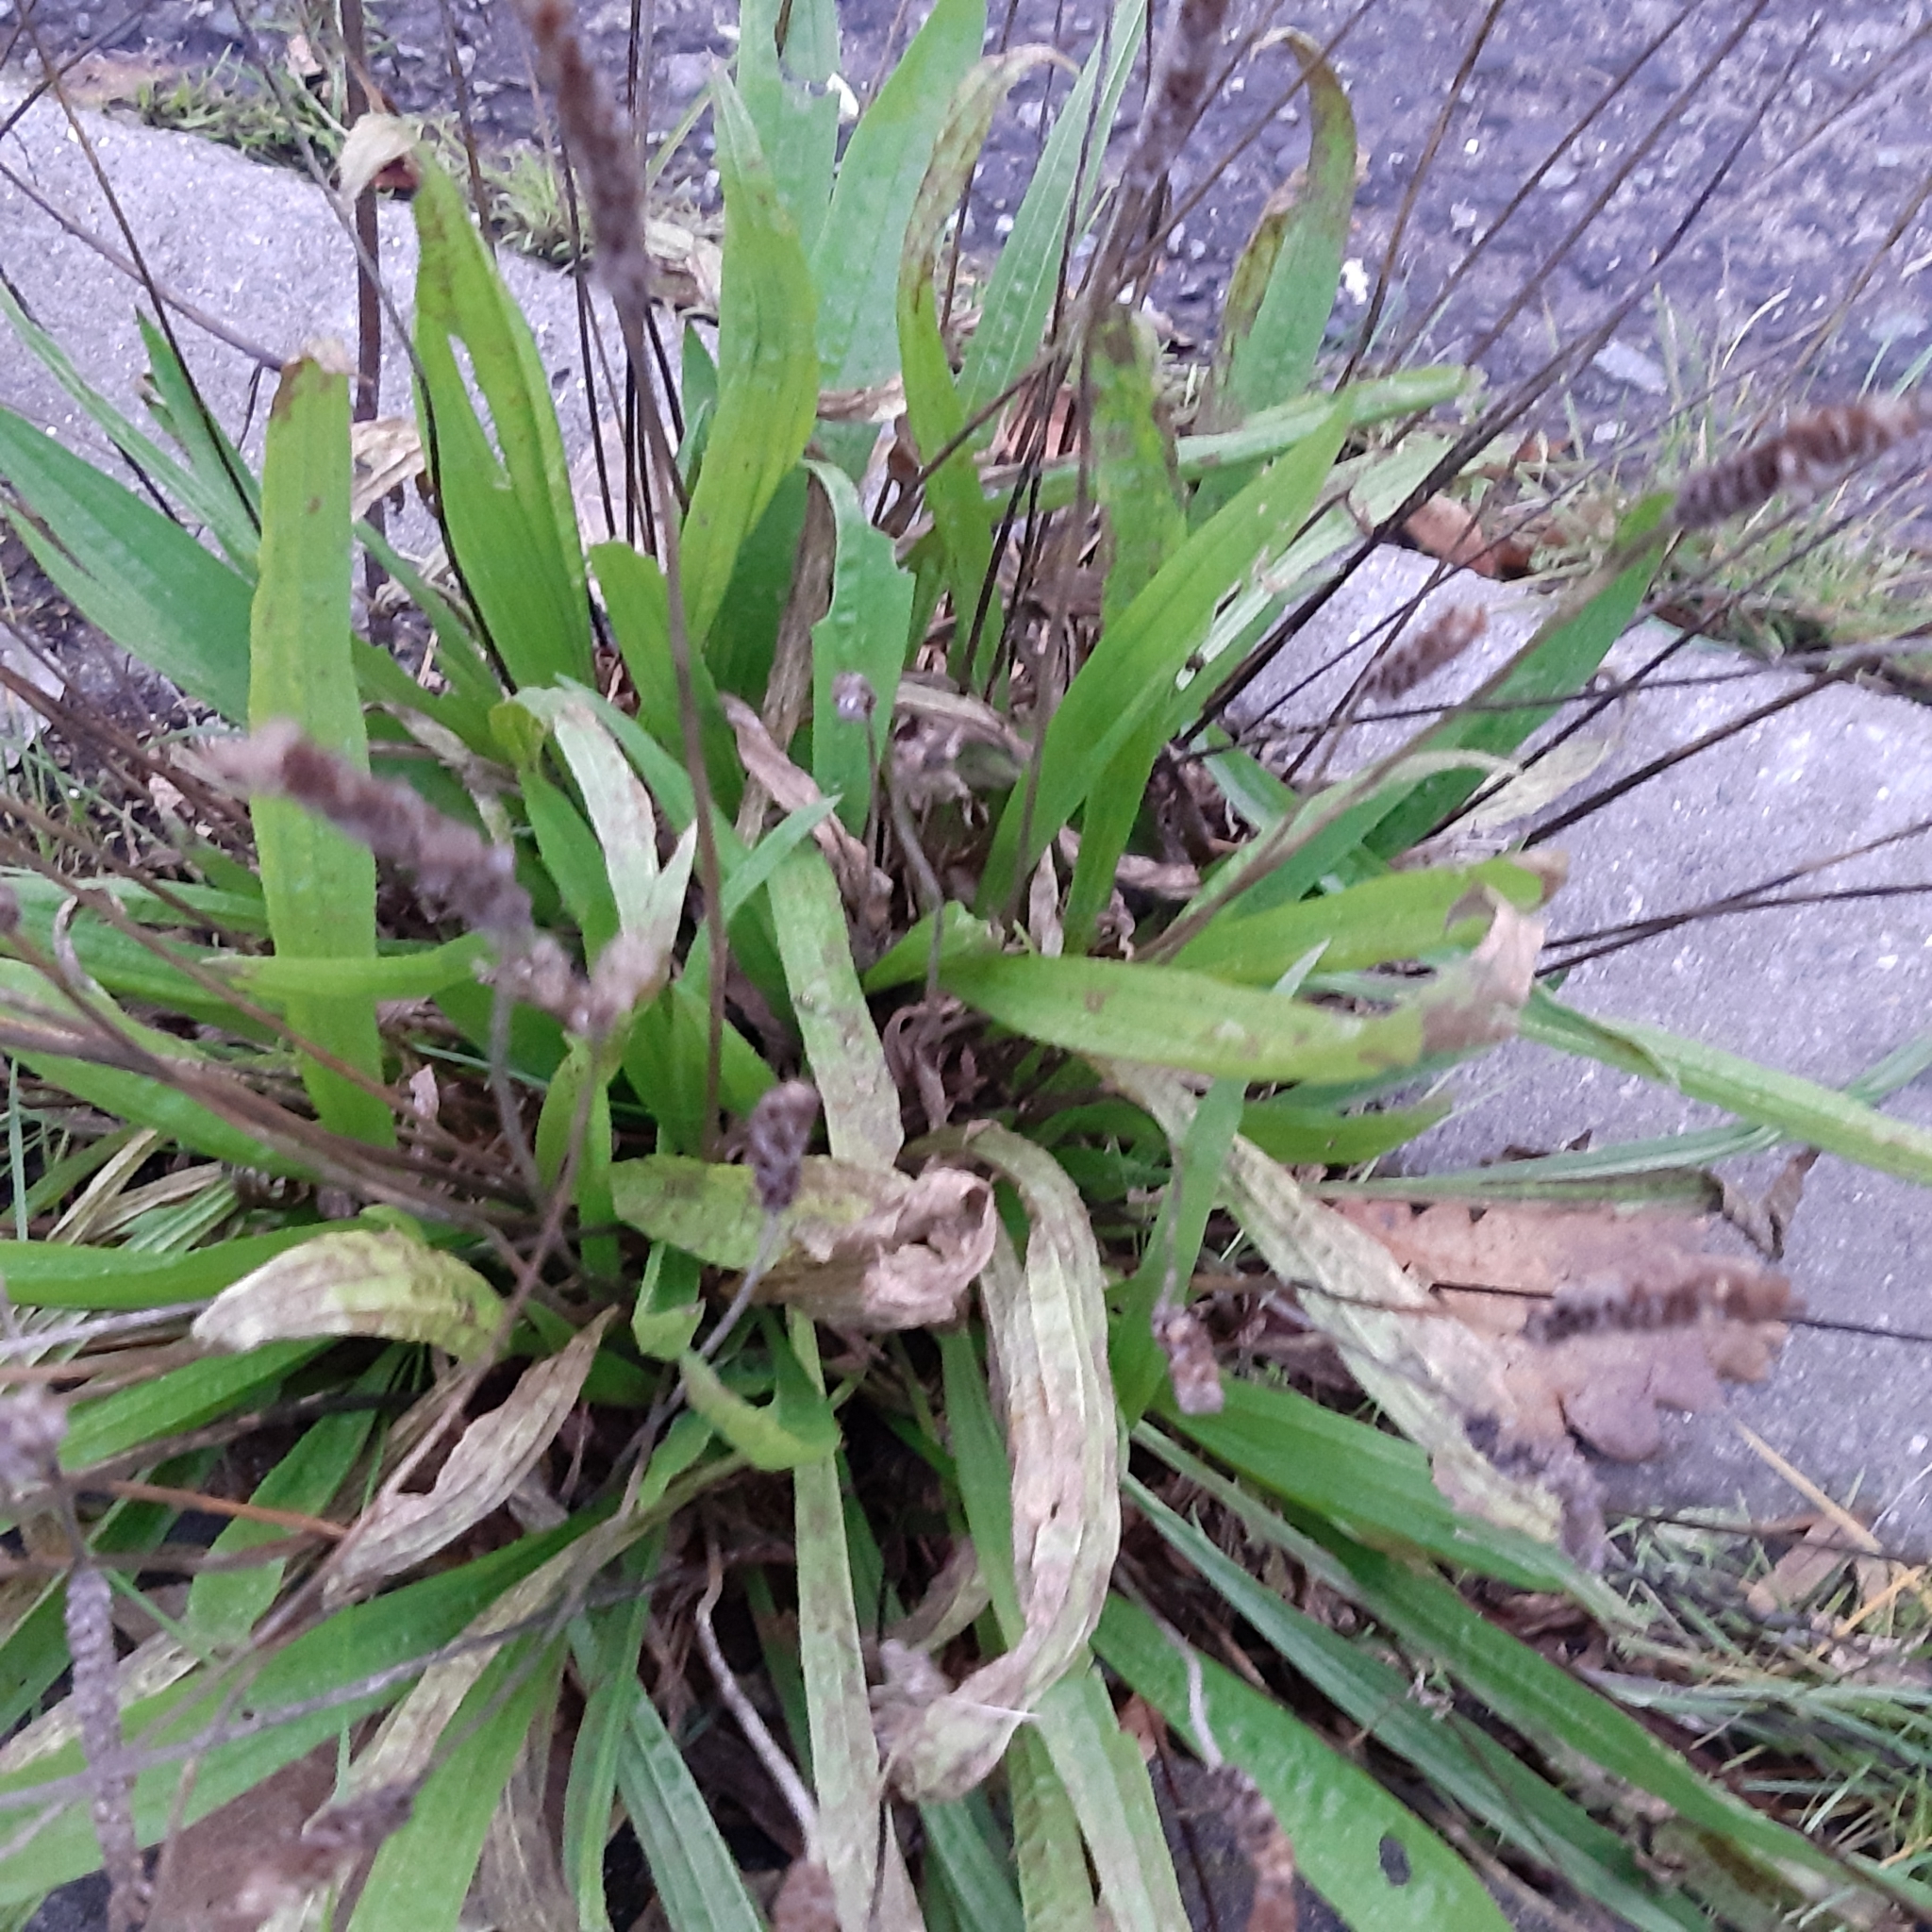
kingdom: Plantae
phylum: Tracheophyta
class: Magnoliopsida
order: Lamiales
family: Plantaginaceae
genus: Plantago
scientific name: Plantago lanceolata
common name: Ribwort plantain
